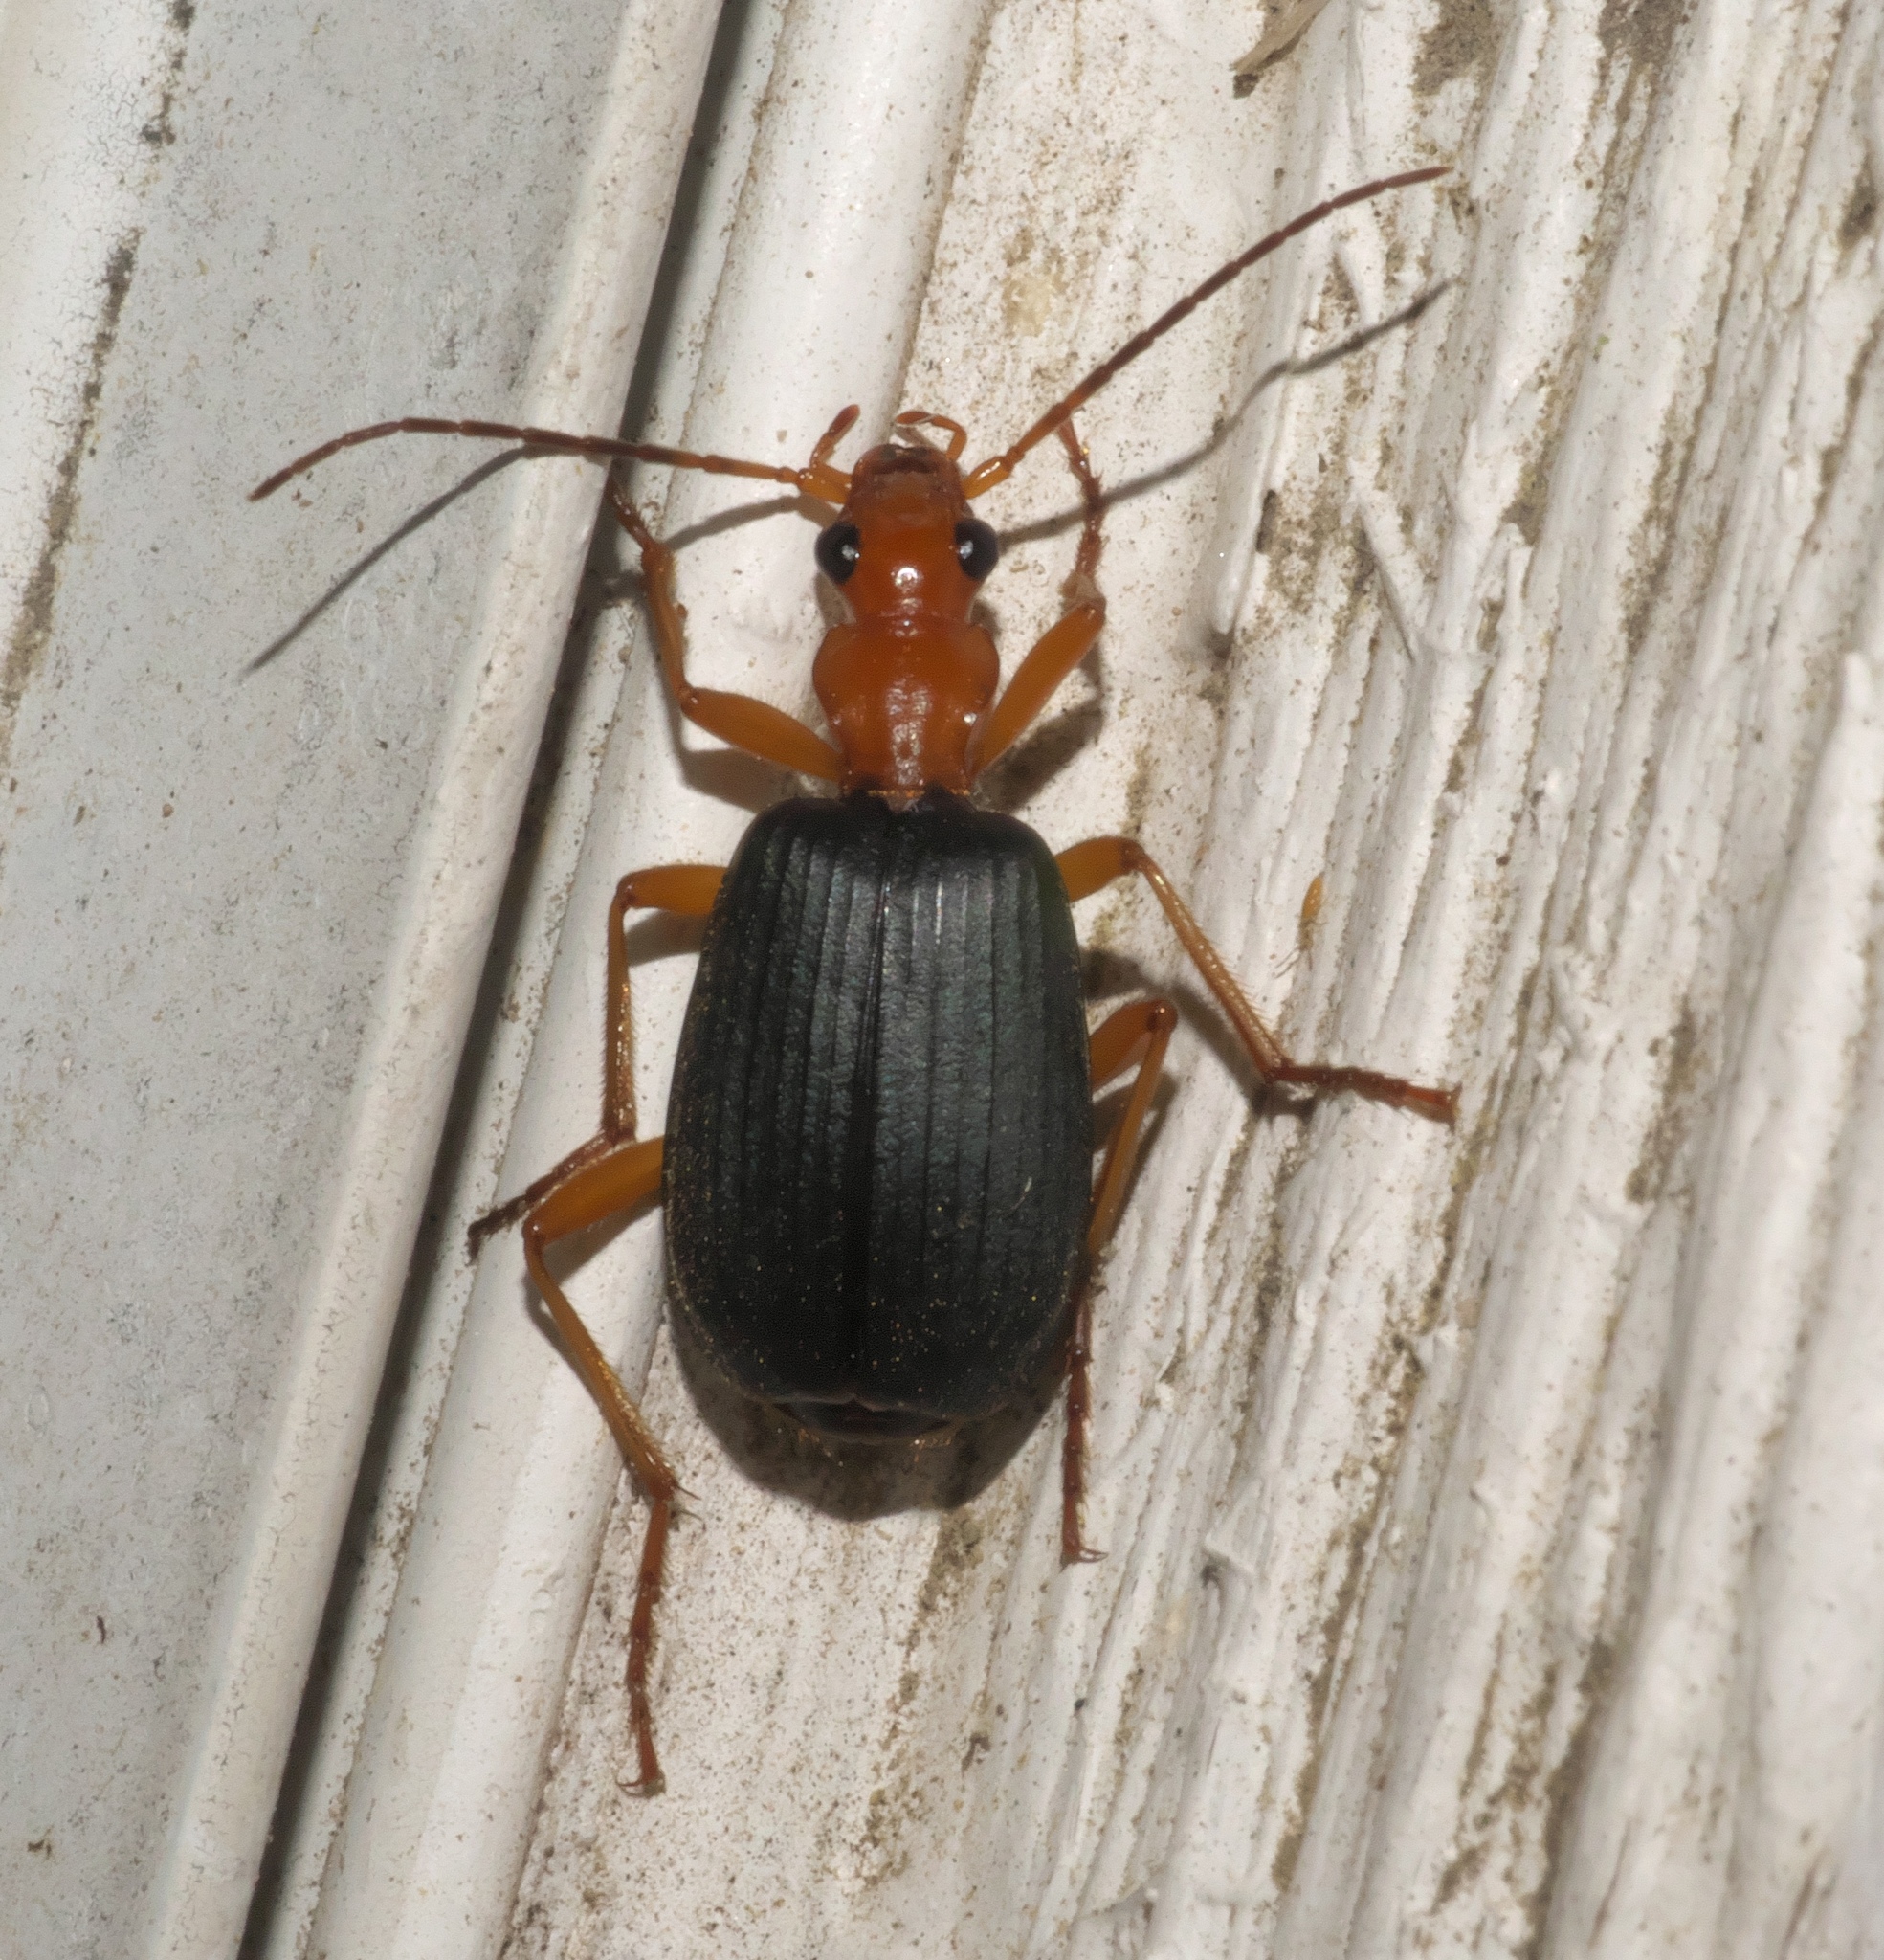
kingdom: Animalia
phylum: Arthropoda
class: Insecta
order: Coleoptera
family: Carabidae
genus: Brachinus
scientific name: Brachinus
